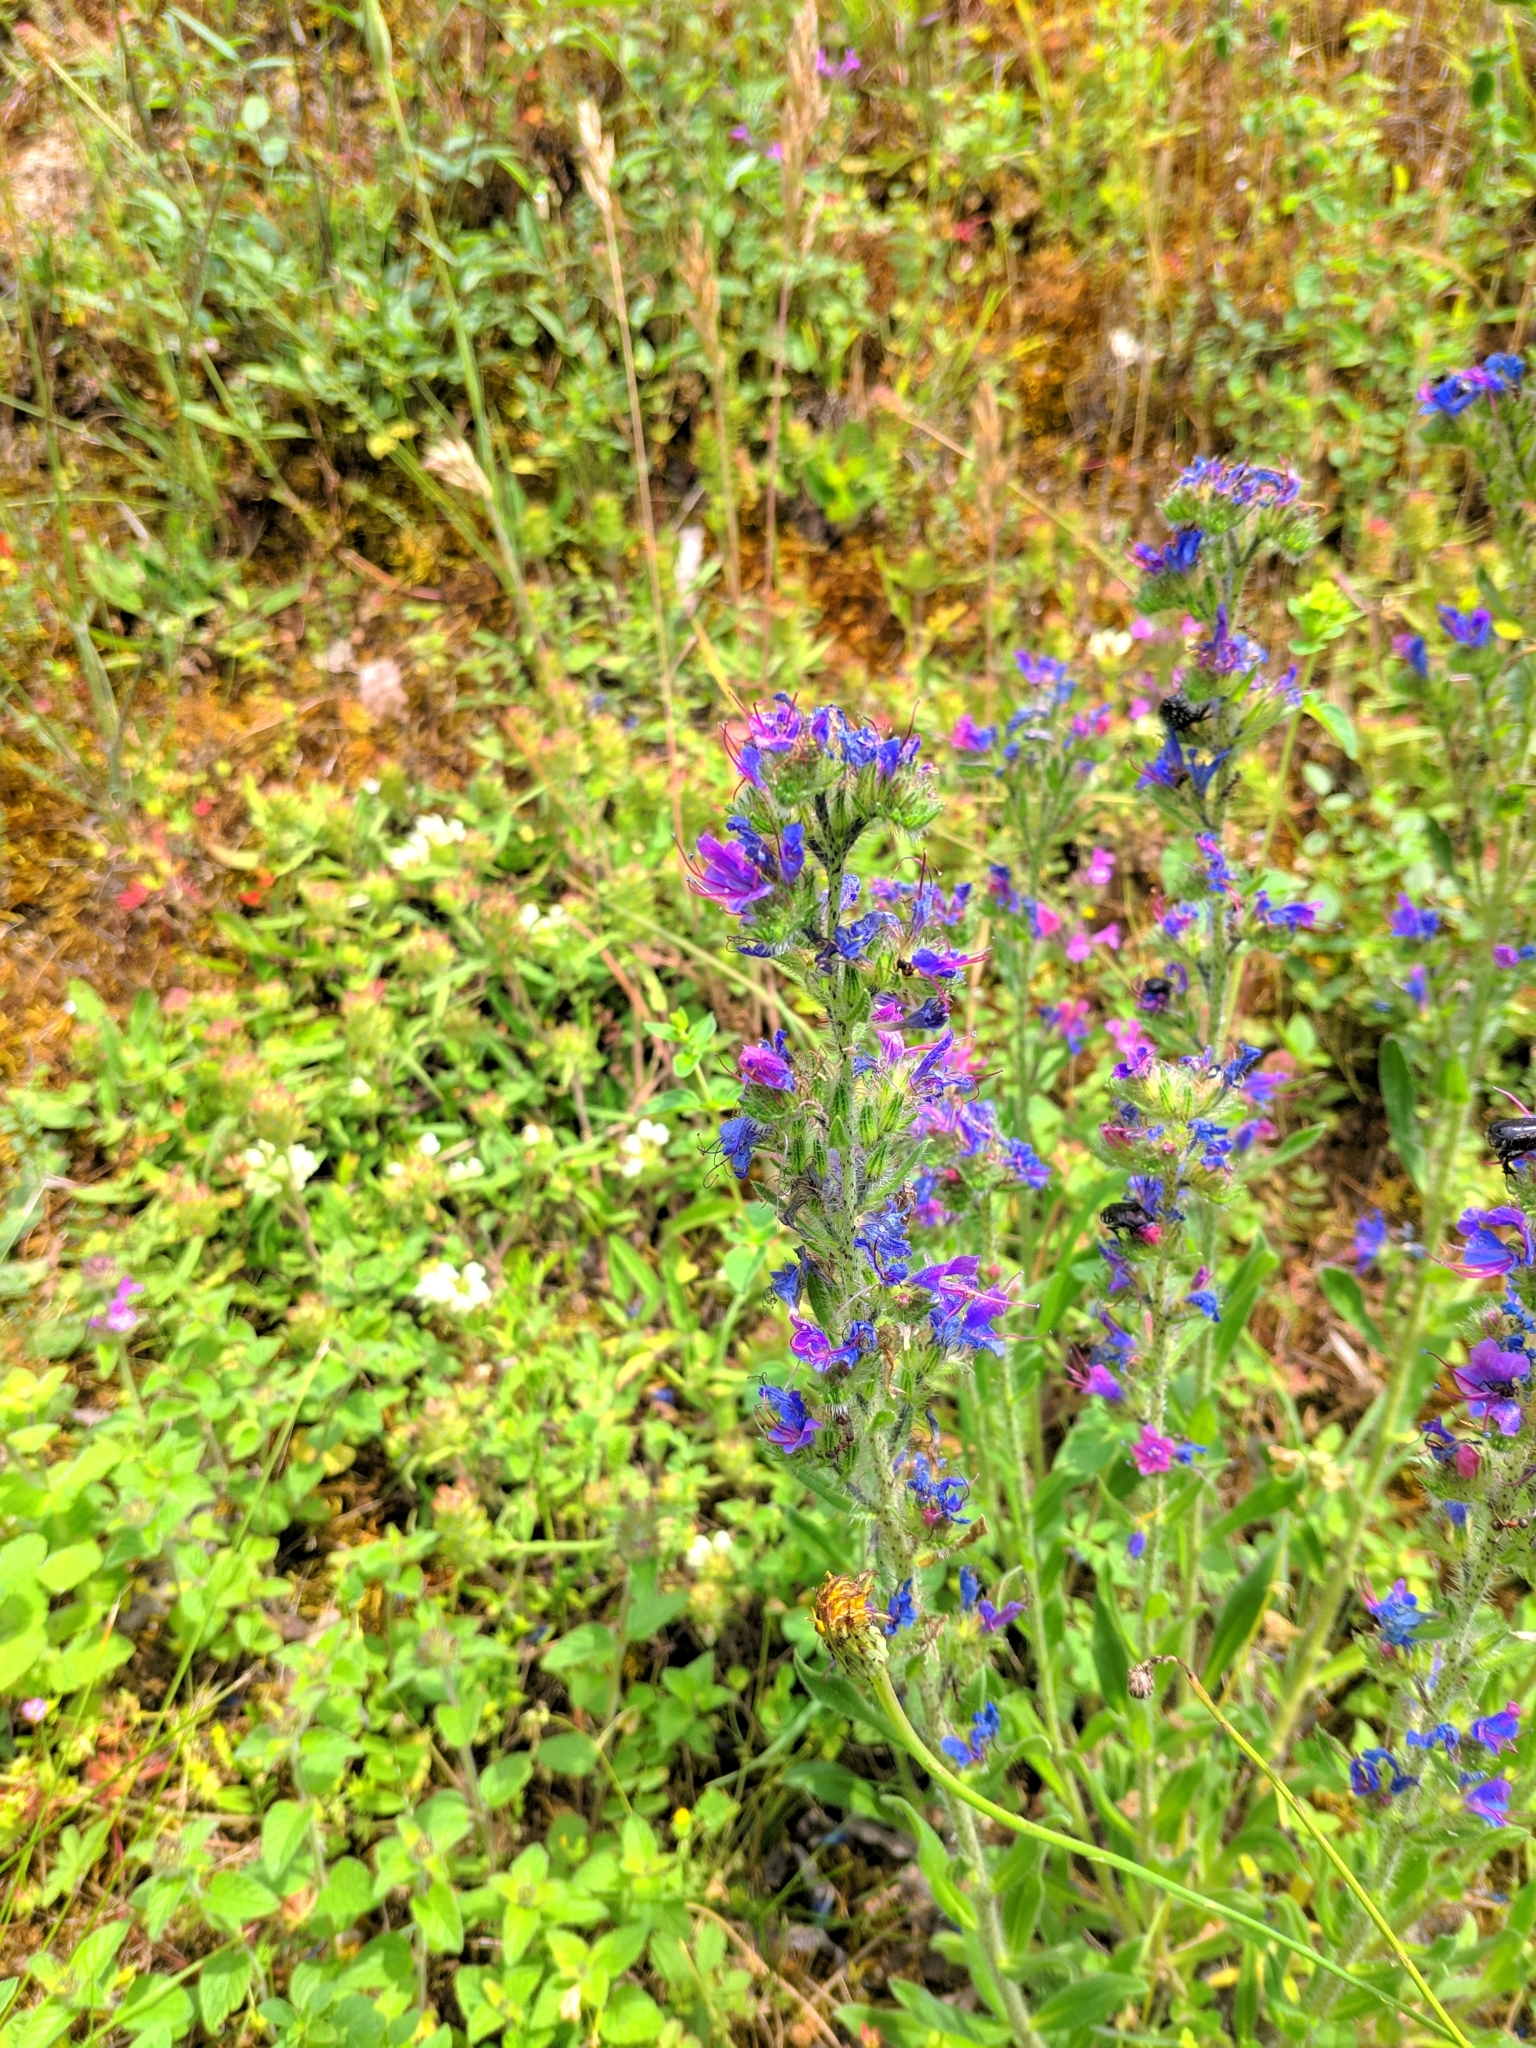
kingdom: Plantae
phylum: Tracheophyta
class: Magnoliopsida
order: Boraginales
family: Boraginaceae
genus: Echium
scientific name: Echium vulgare
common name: Common viper's bugloss
